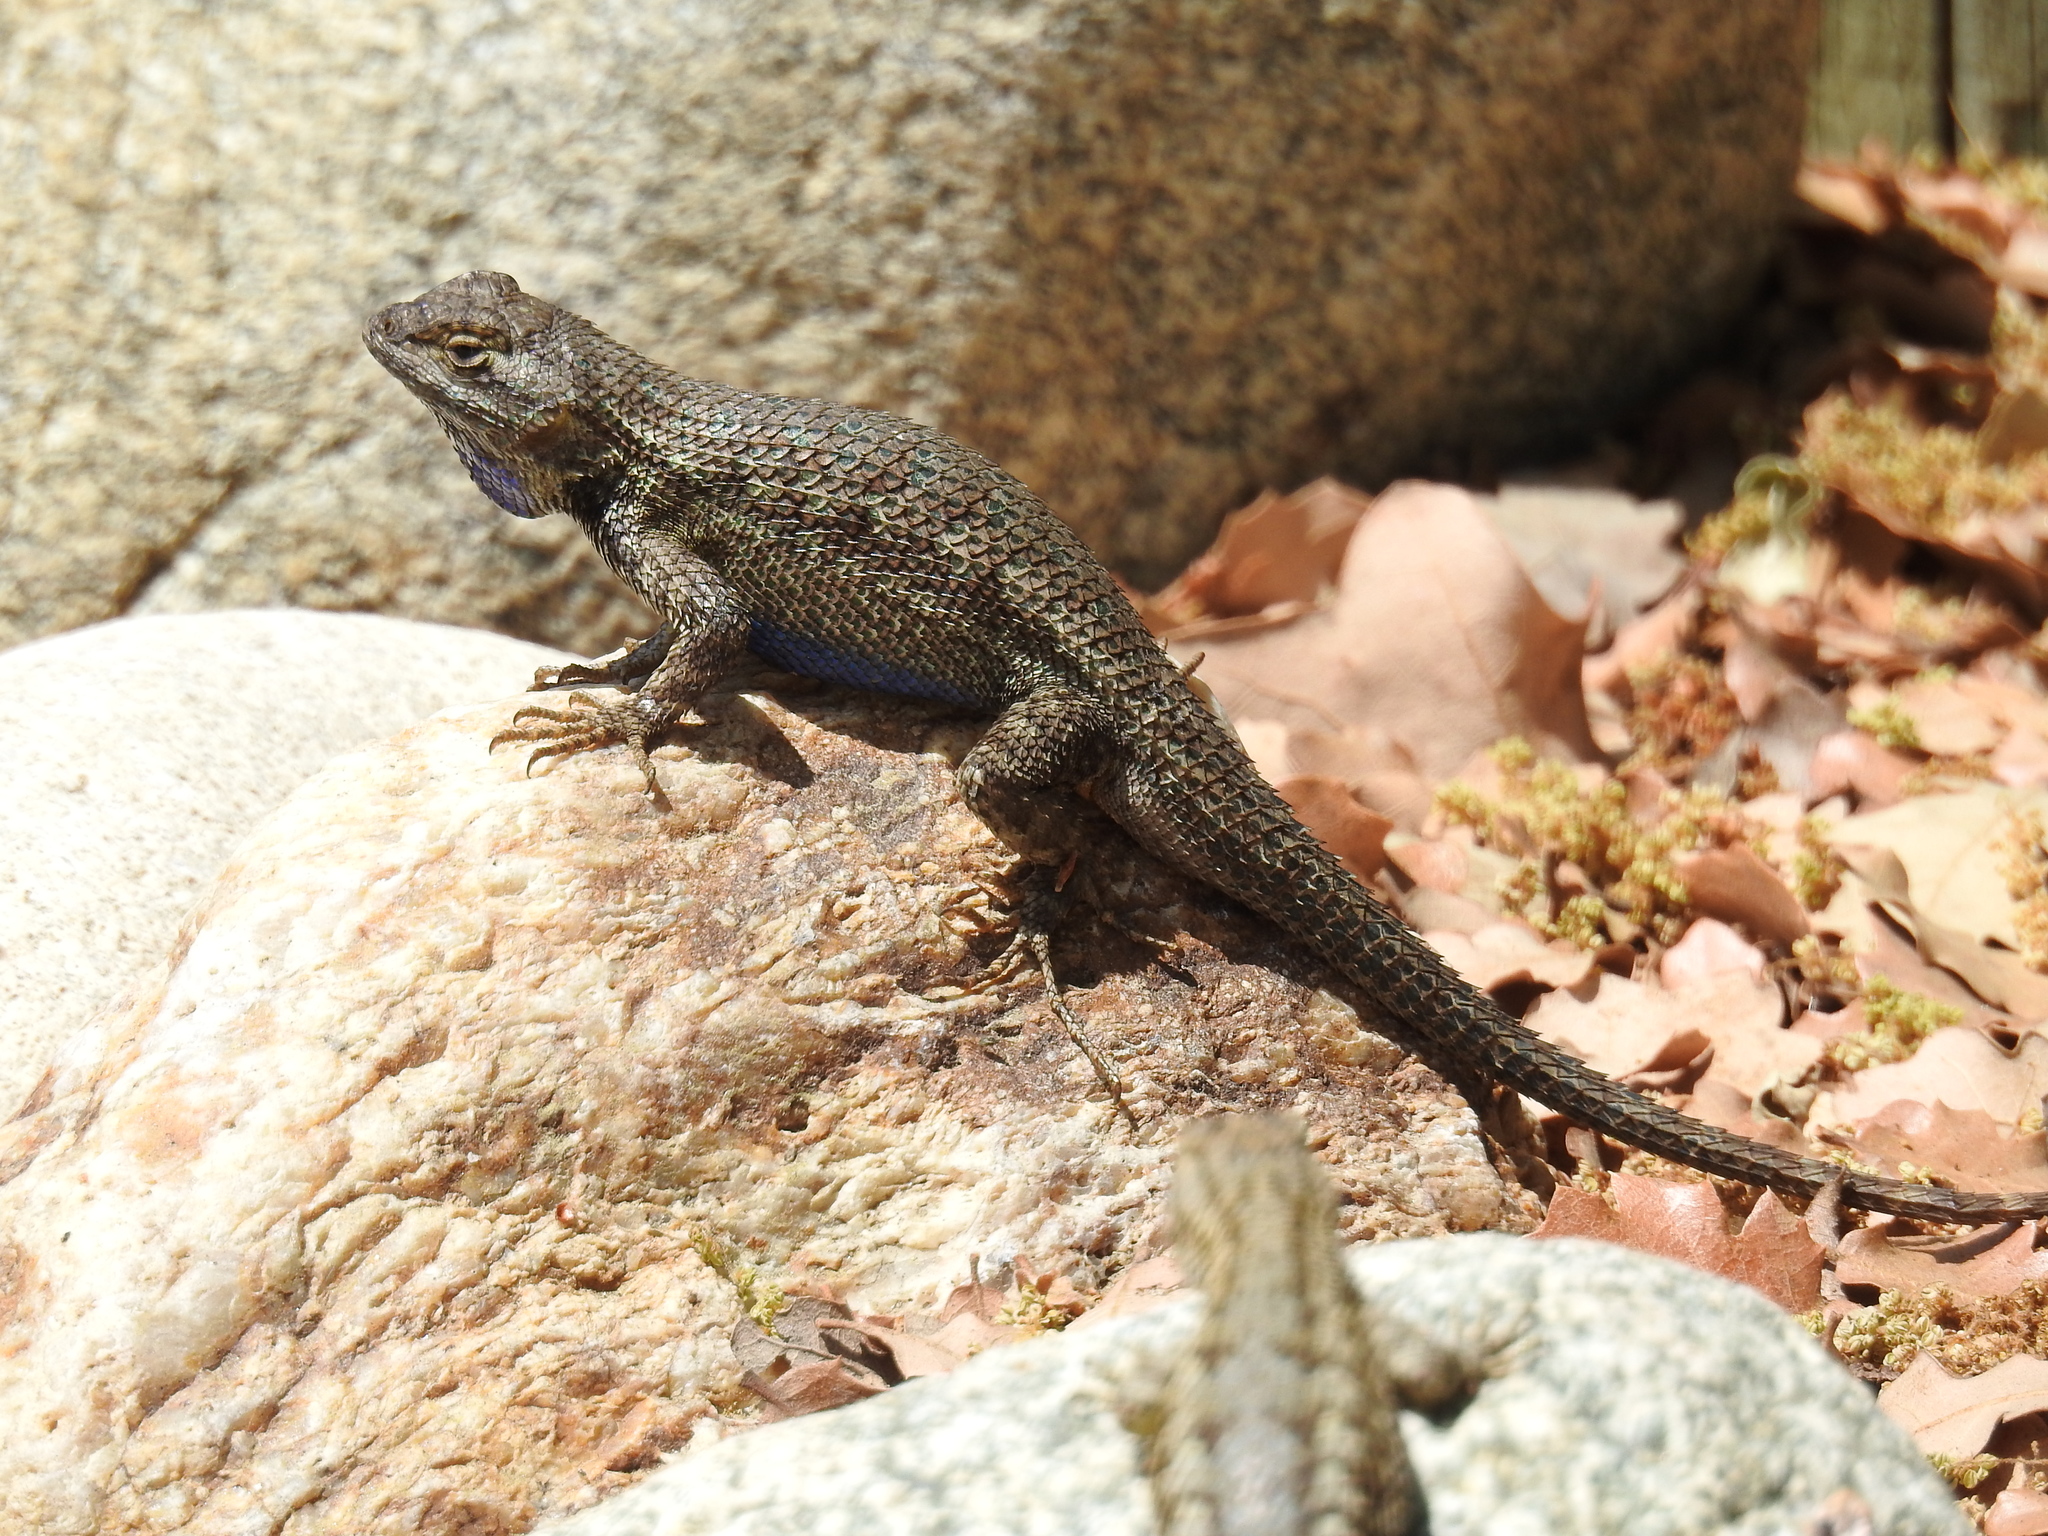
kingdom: Animalia
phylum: Chordata
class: Squamata
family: Phrynosomatidae
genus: Sceloporus
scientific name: Sceloporus occidentalis
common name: Western fence lizard
